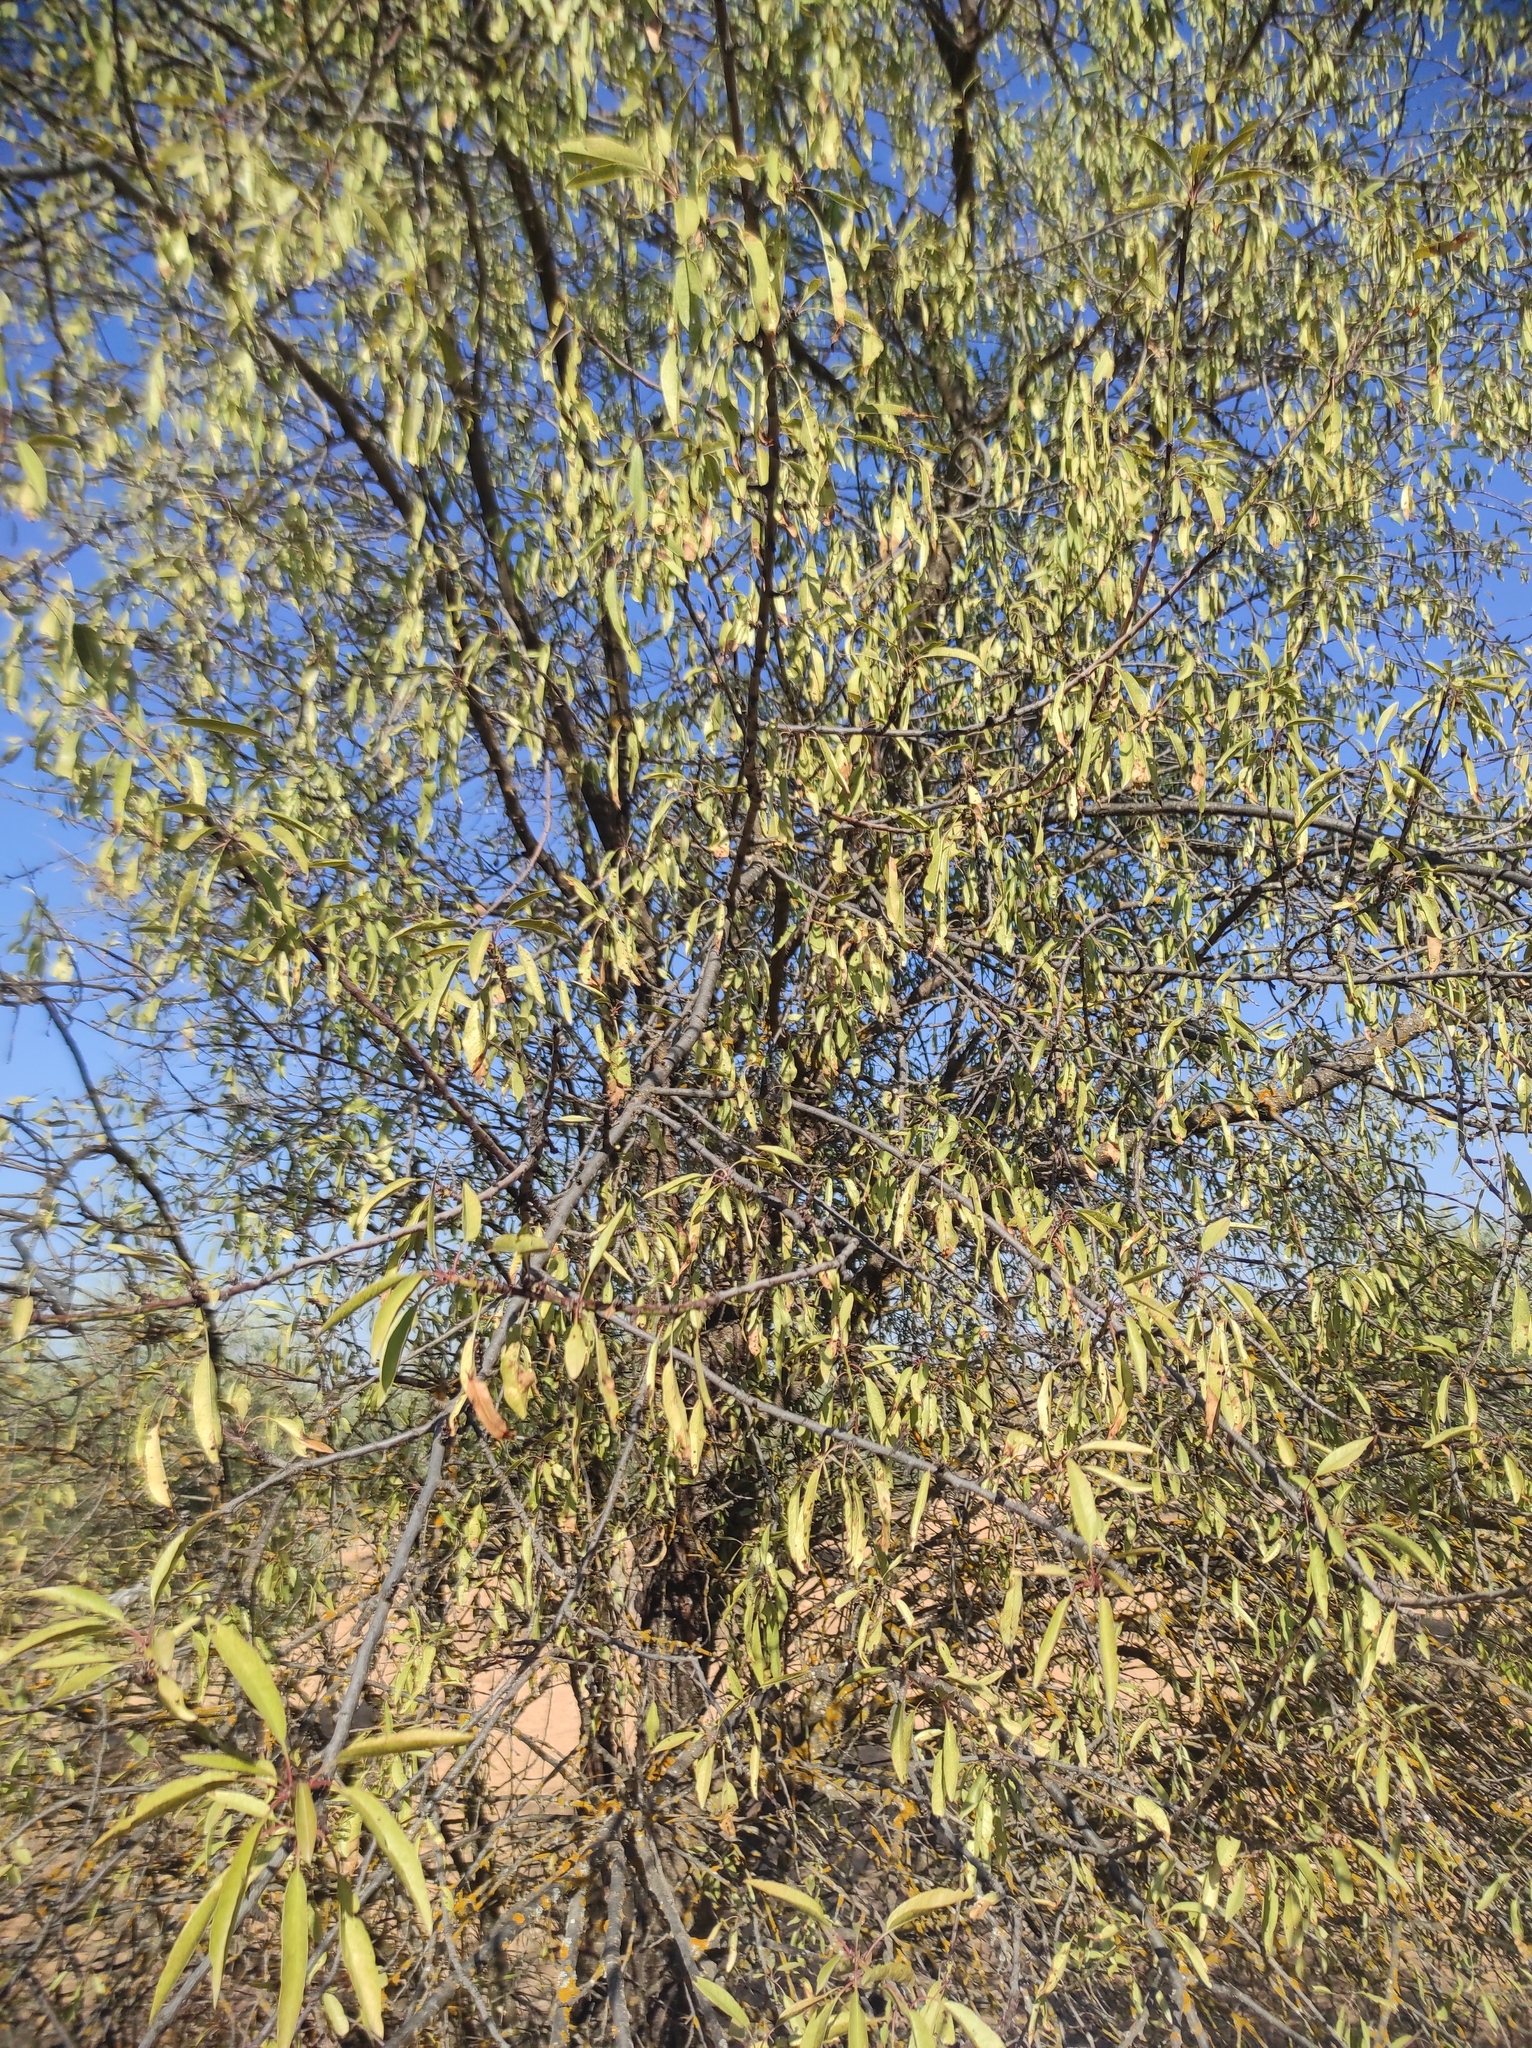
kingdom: Plantae
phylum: Tracheophyta
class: Magnoliopsida
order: Rosales
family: Rosaceae
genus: Prunus
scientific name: Prunus amygdalus
